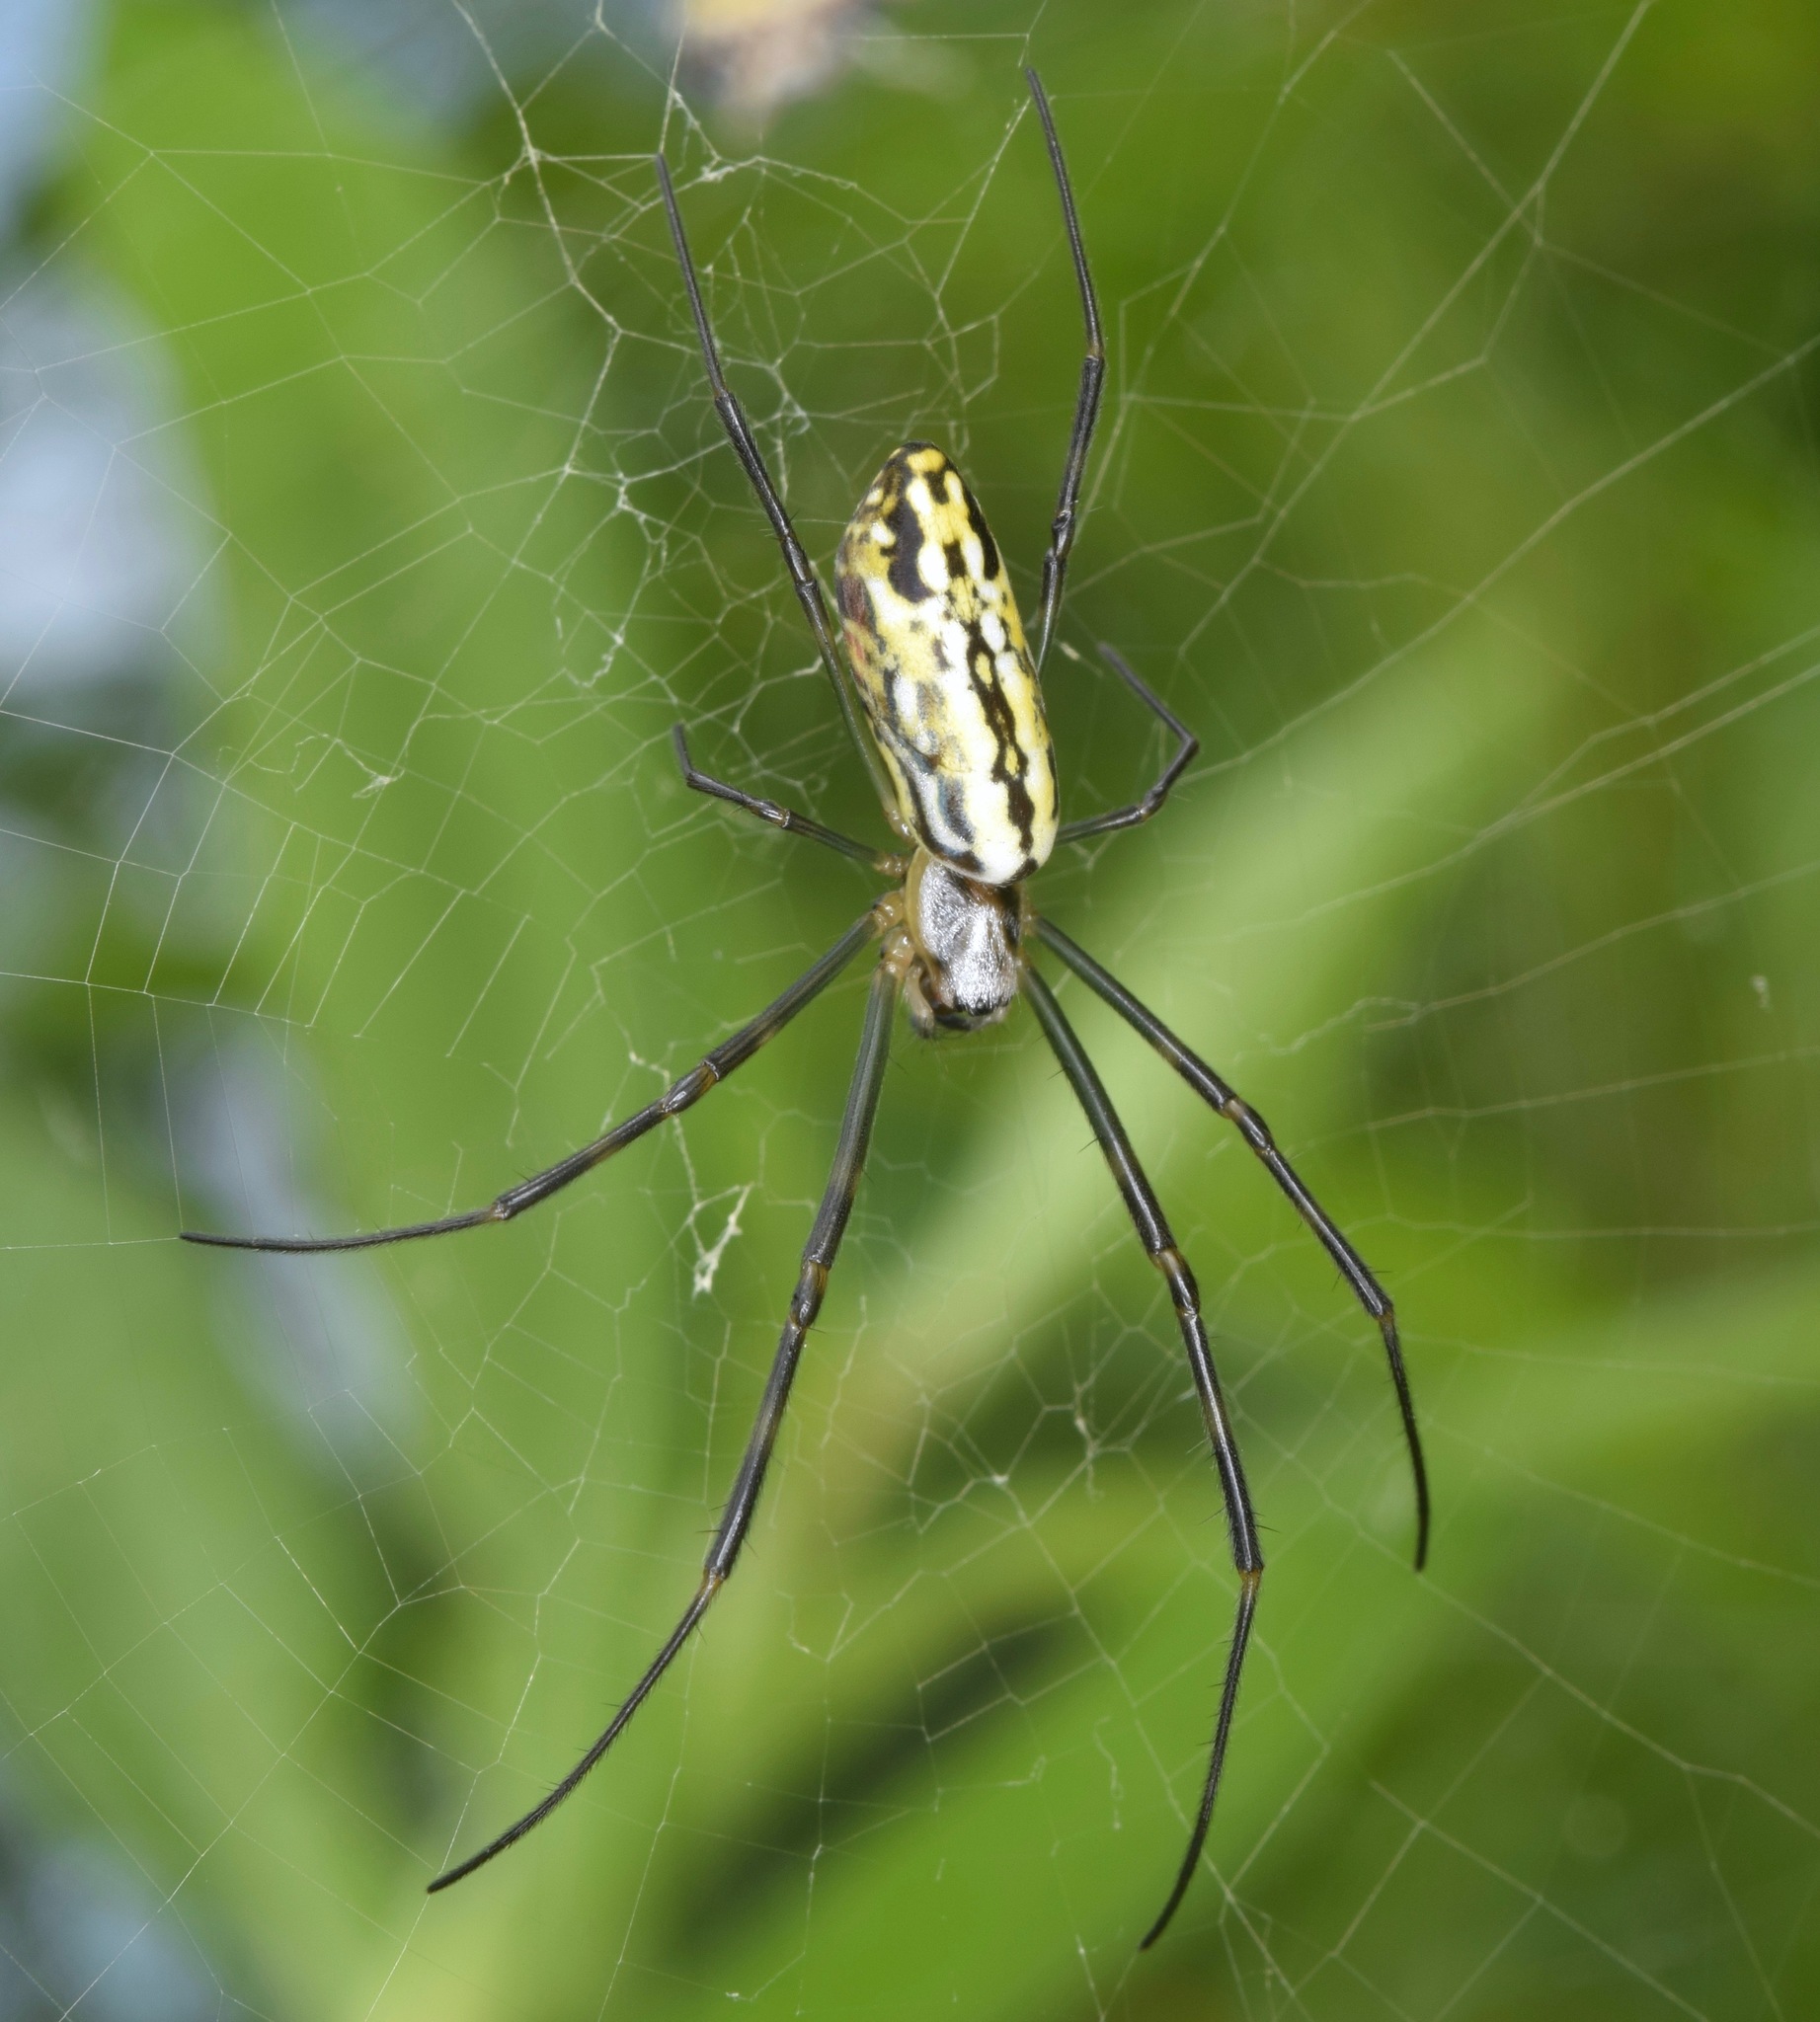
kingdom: Animalia
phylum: Arthropoda
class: Arachnida
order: Araneae
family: Araneidae
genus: Trichonephila
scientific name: Trichonephila clavata
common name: Jorō spider
